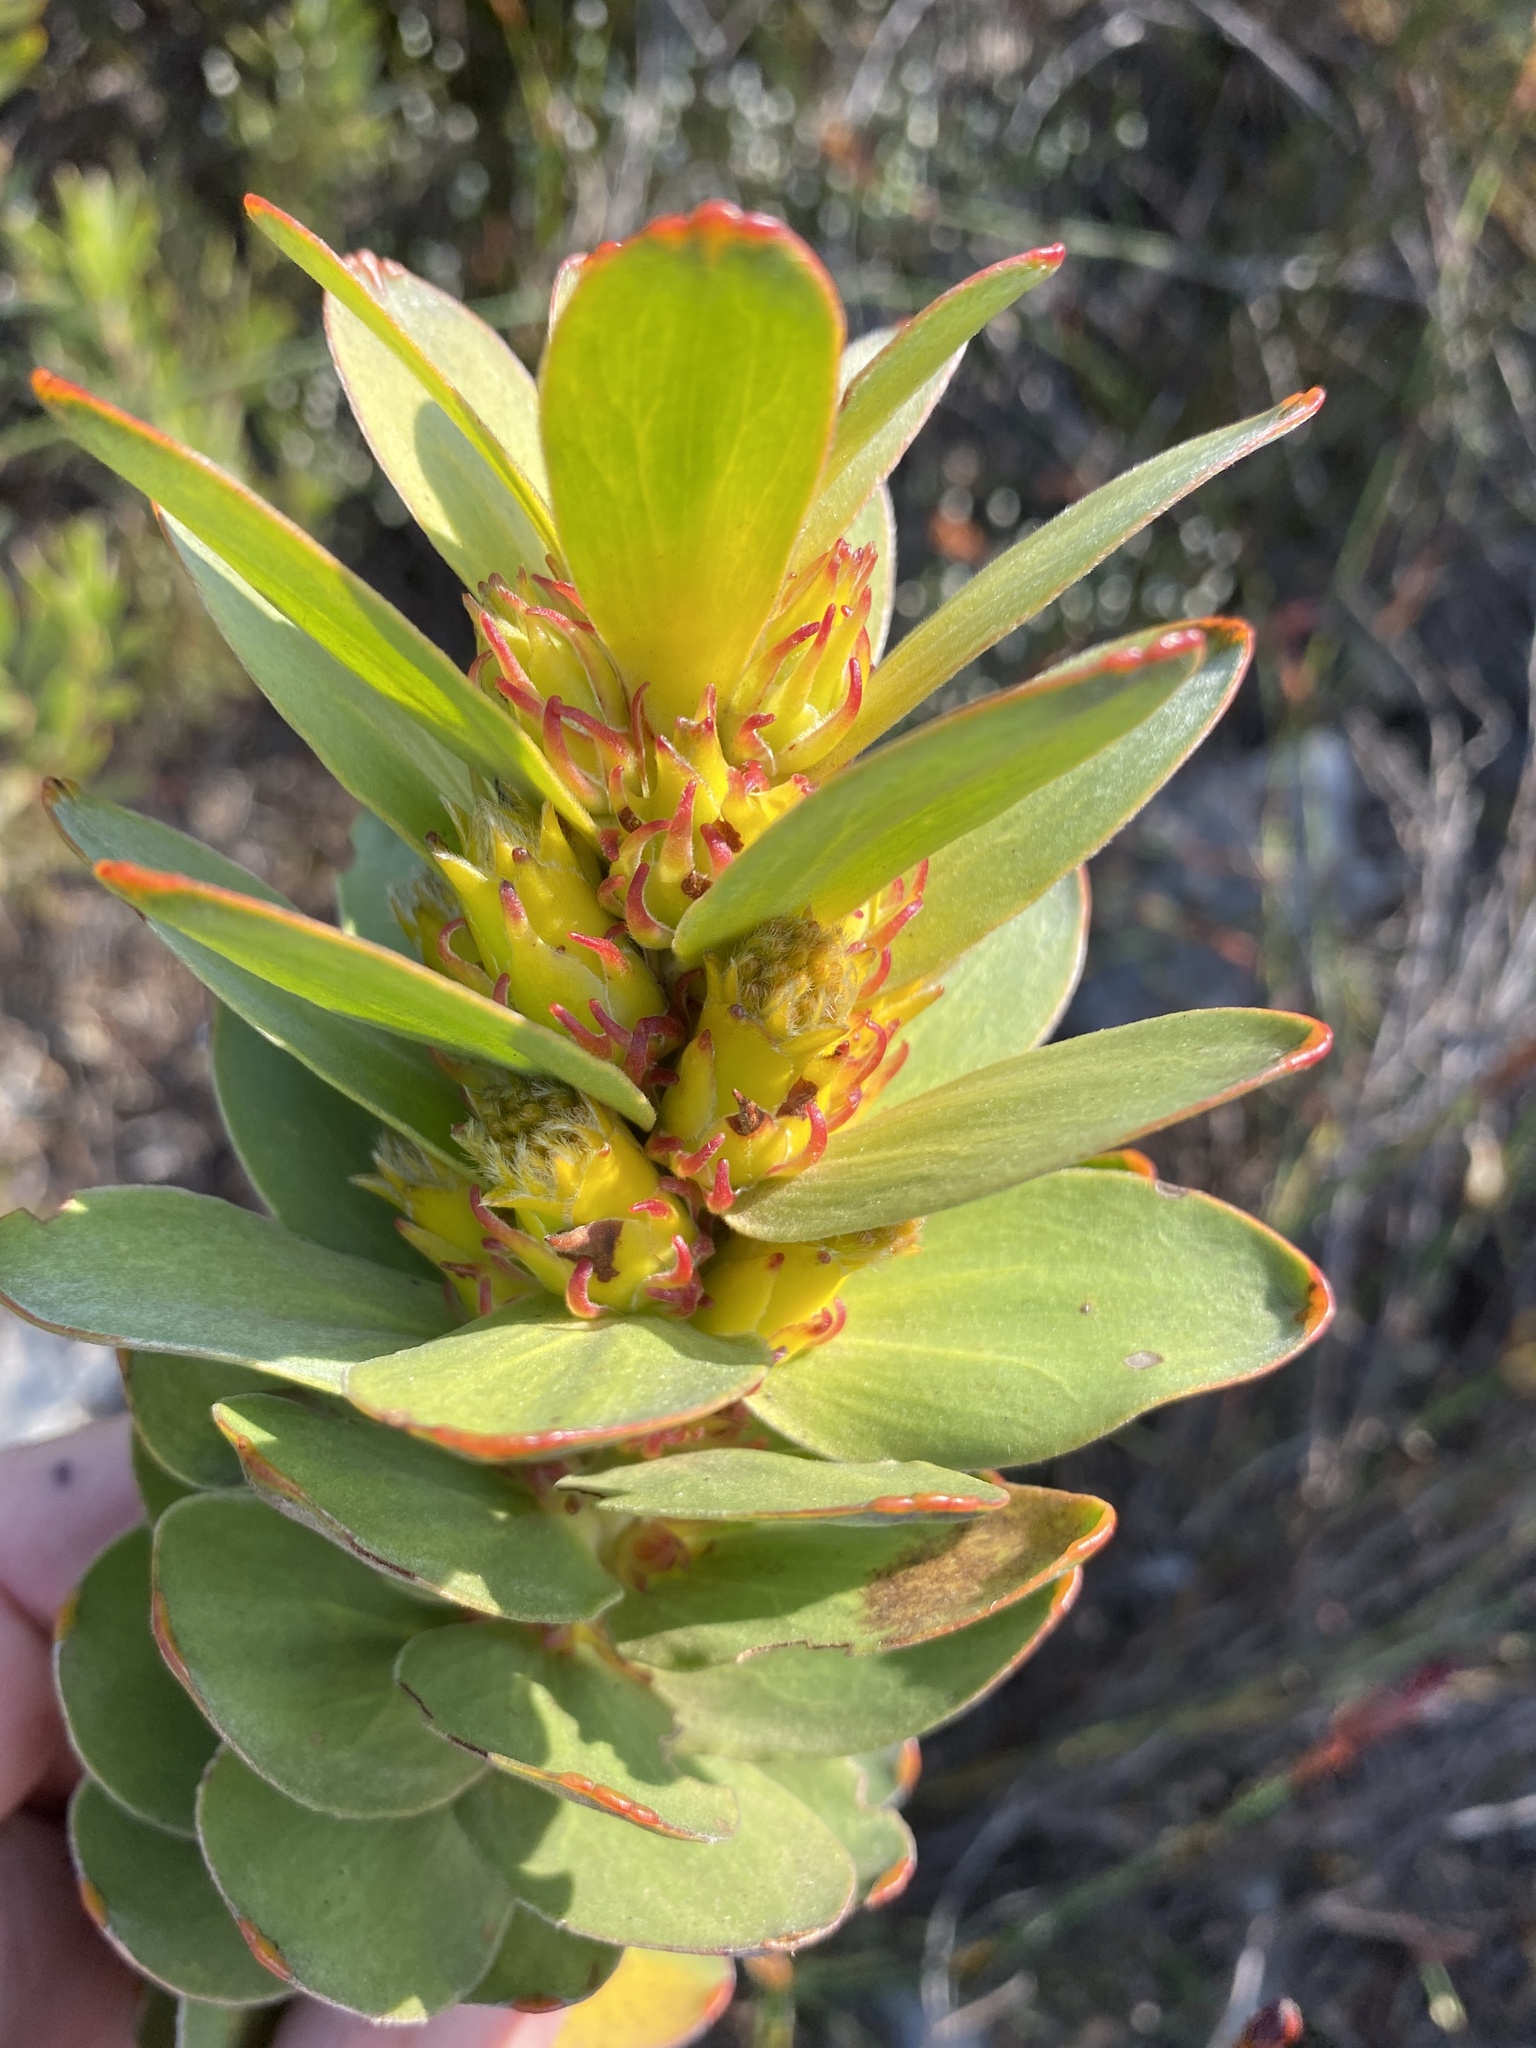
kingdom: Plantae
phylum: Tracheophyta
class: Magnoliopsida
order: Proteales
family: Proteaceae
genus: Mimetes
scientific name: Mimetes saxatilis
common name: Limestone pagoda
